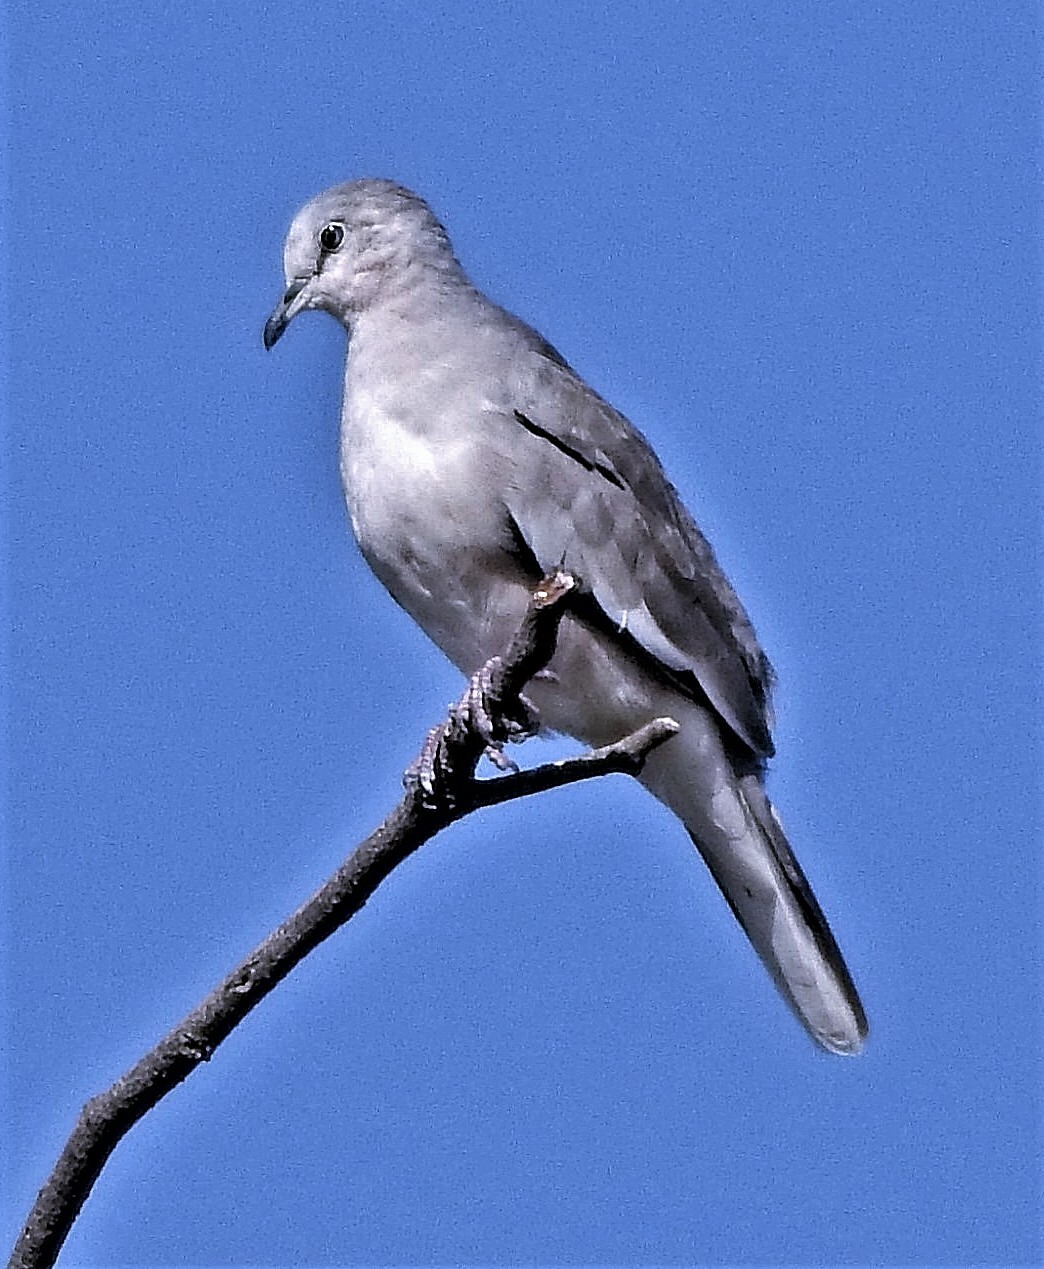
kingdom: Animalia
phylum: Chordata
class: Aves
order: Columbiformes
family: Columbidae
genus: Columbina
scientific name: Columbina picui
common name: Picui ground dove
